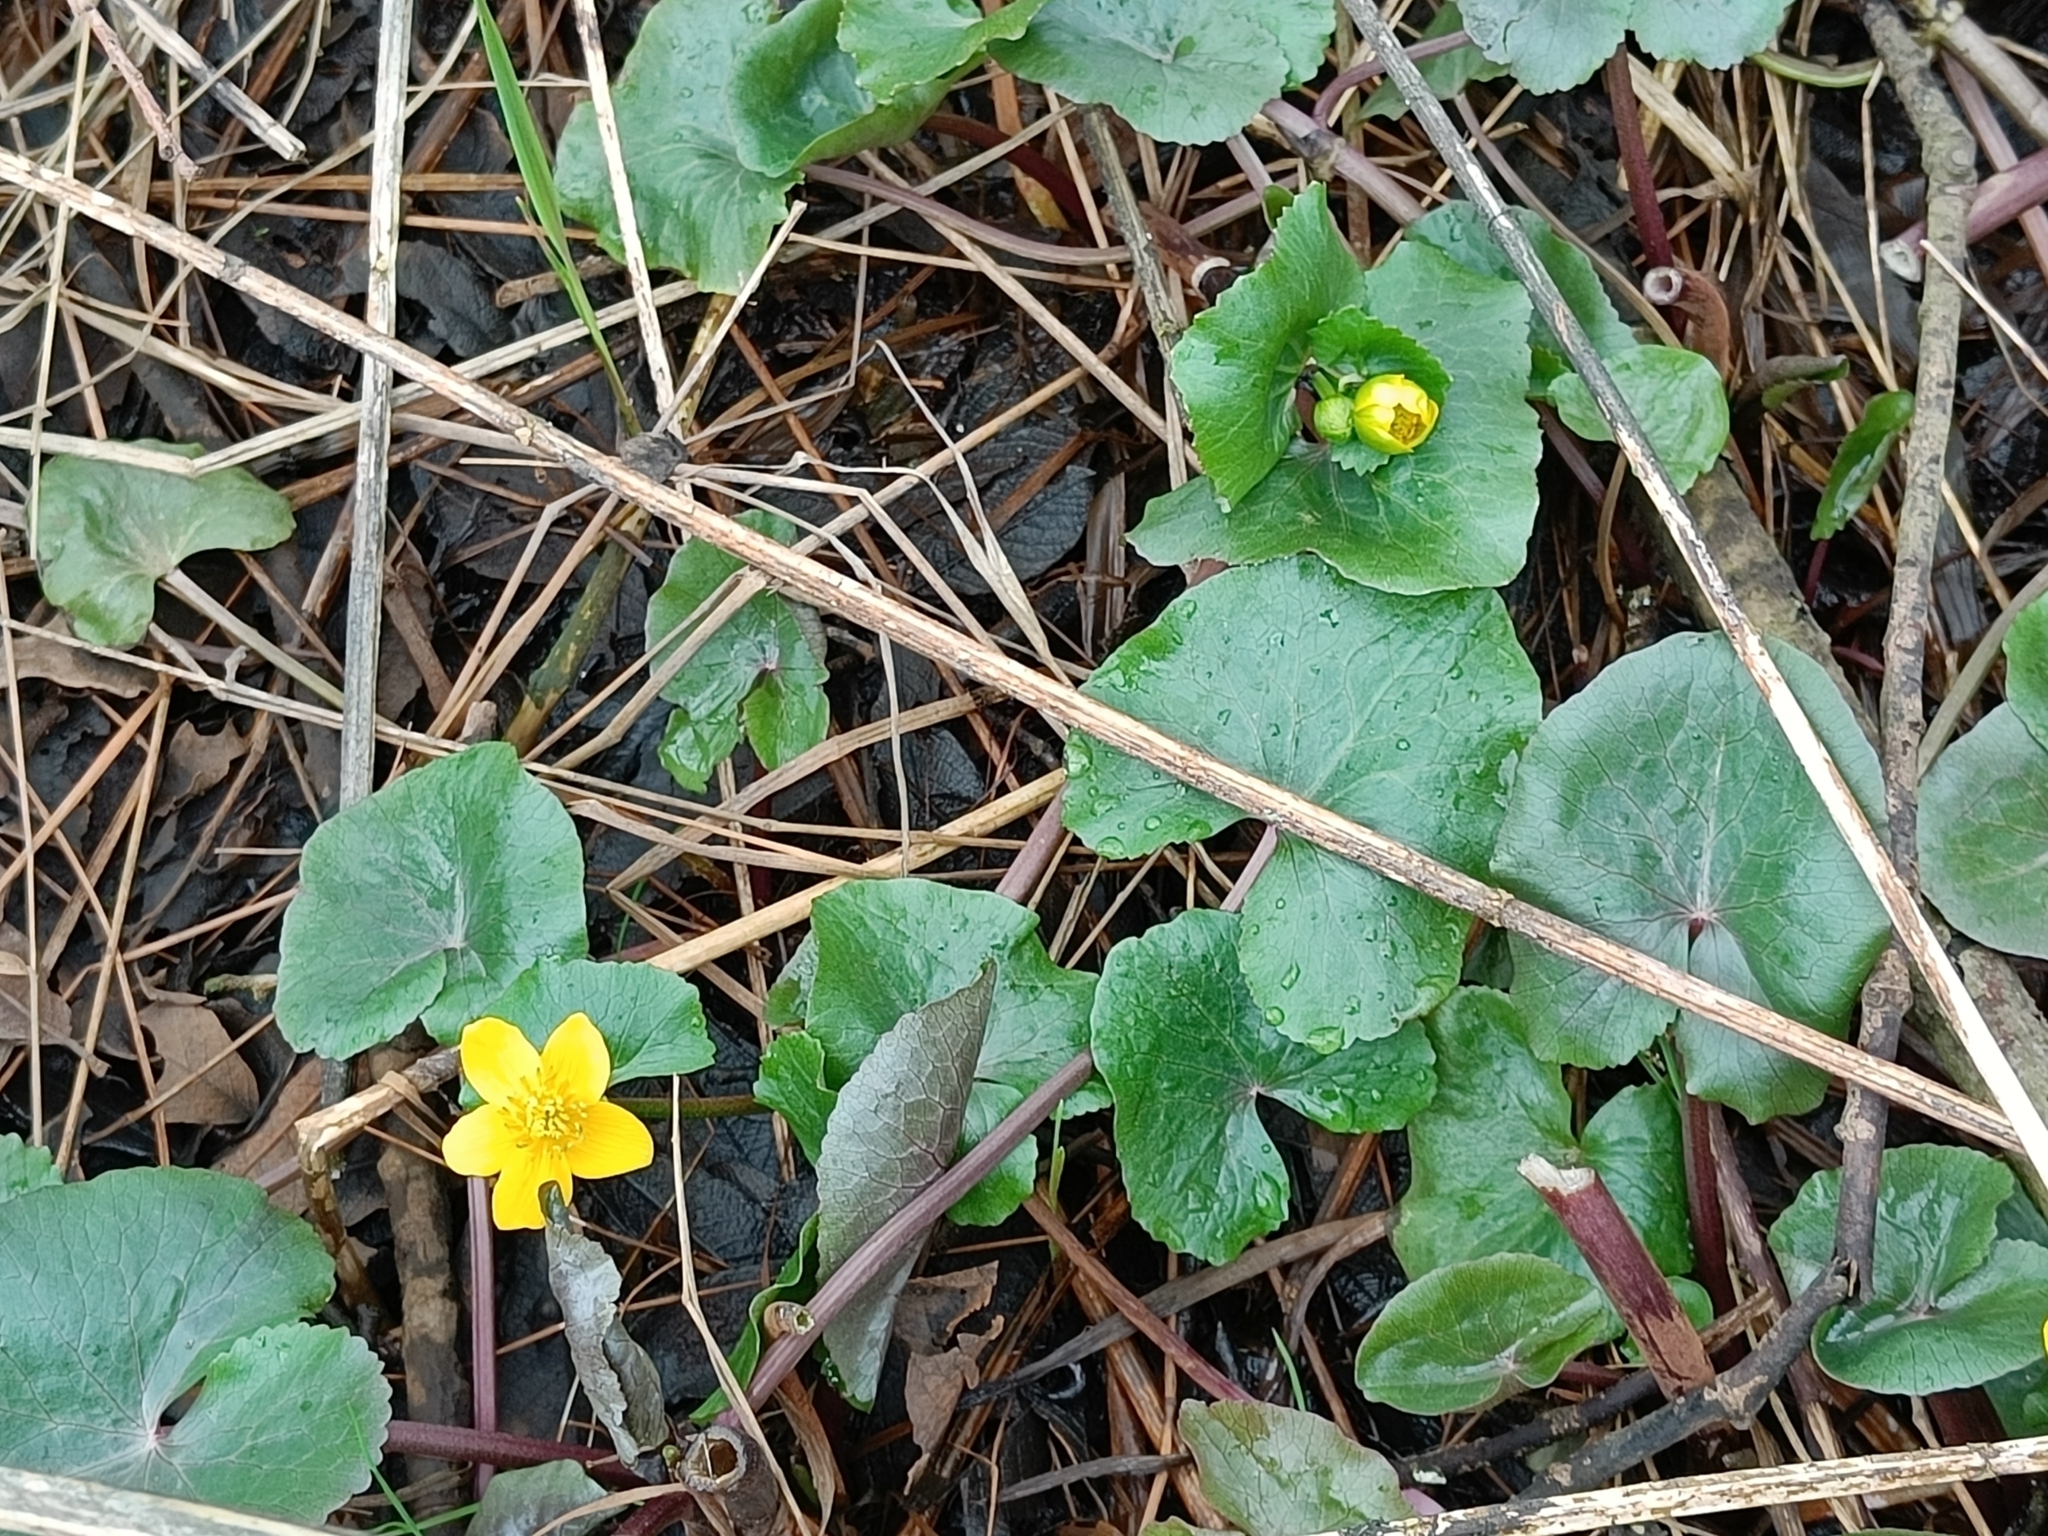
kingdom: Plantae
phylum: Tracheophyta
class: Magnoliopsida
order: Ranunculales
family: Ranunculaceae
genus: Caltha
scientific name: Caltha palustris
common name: Marsh marigold
